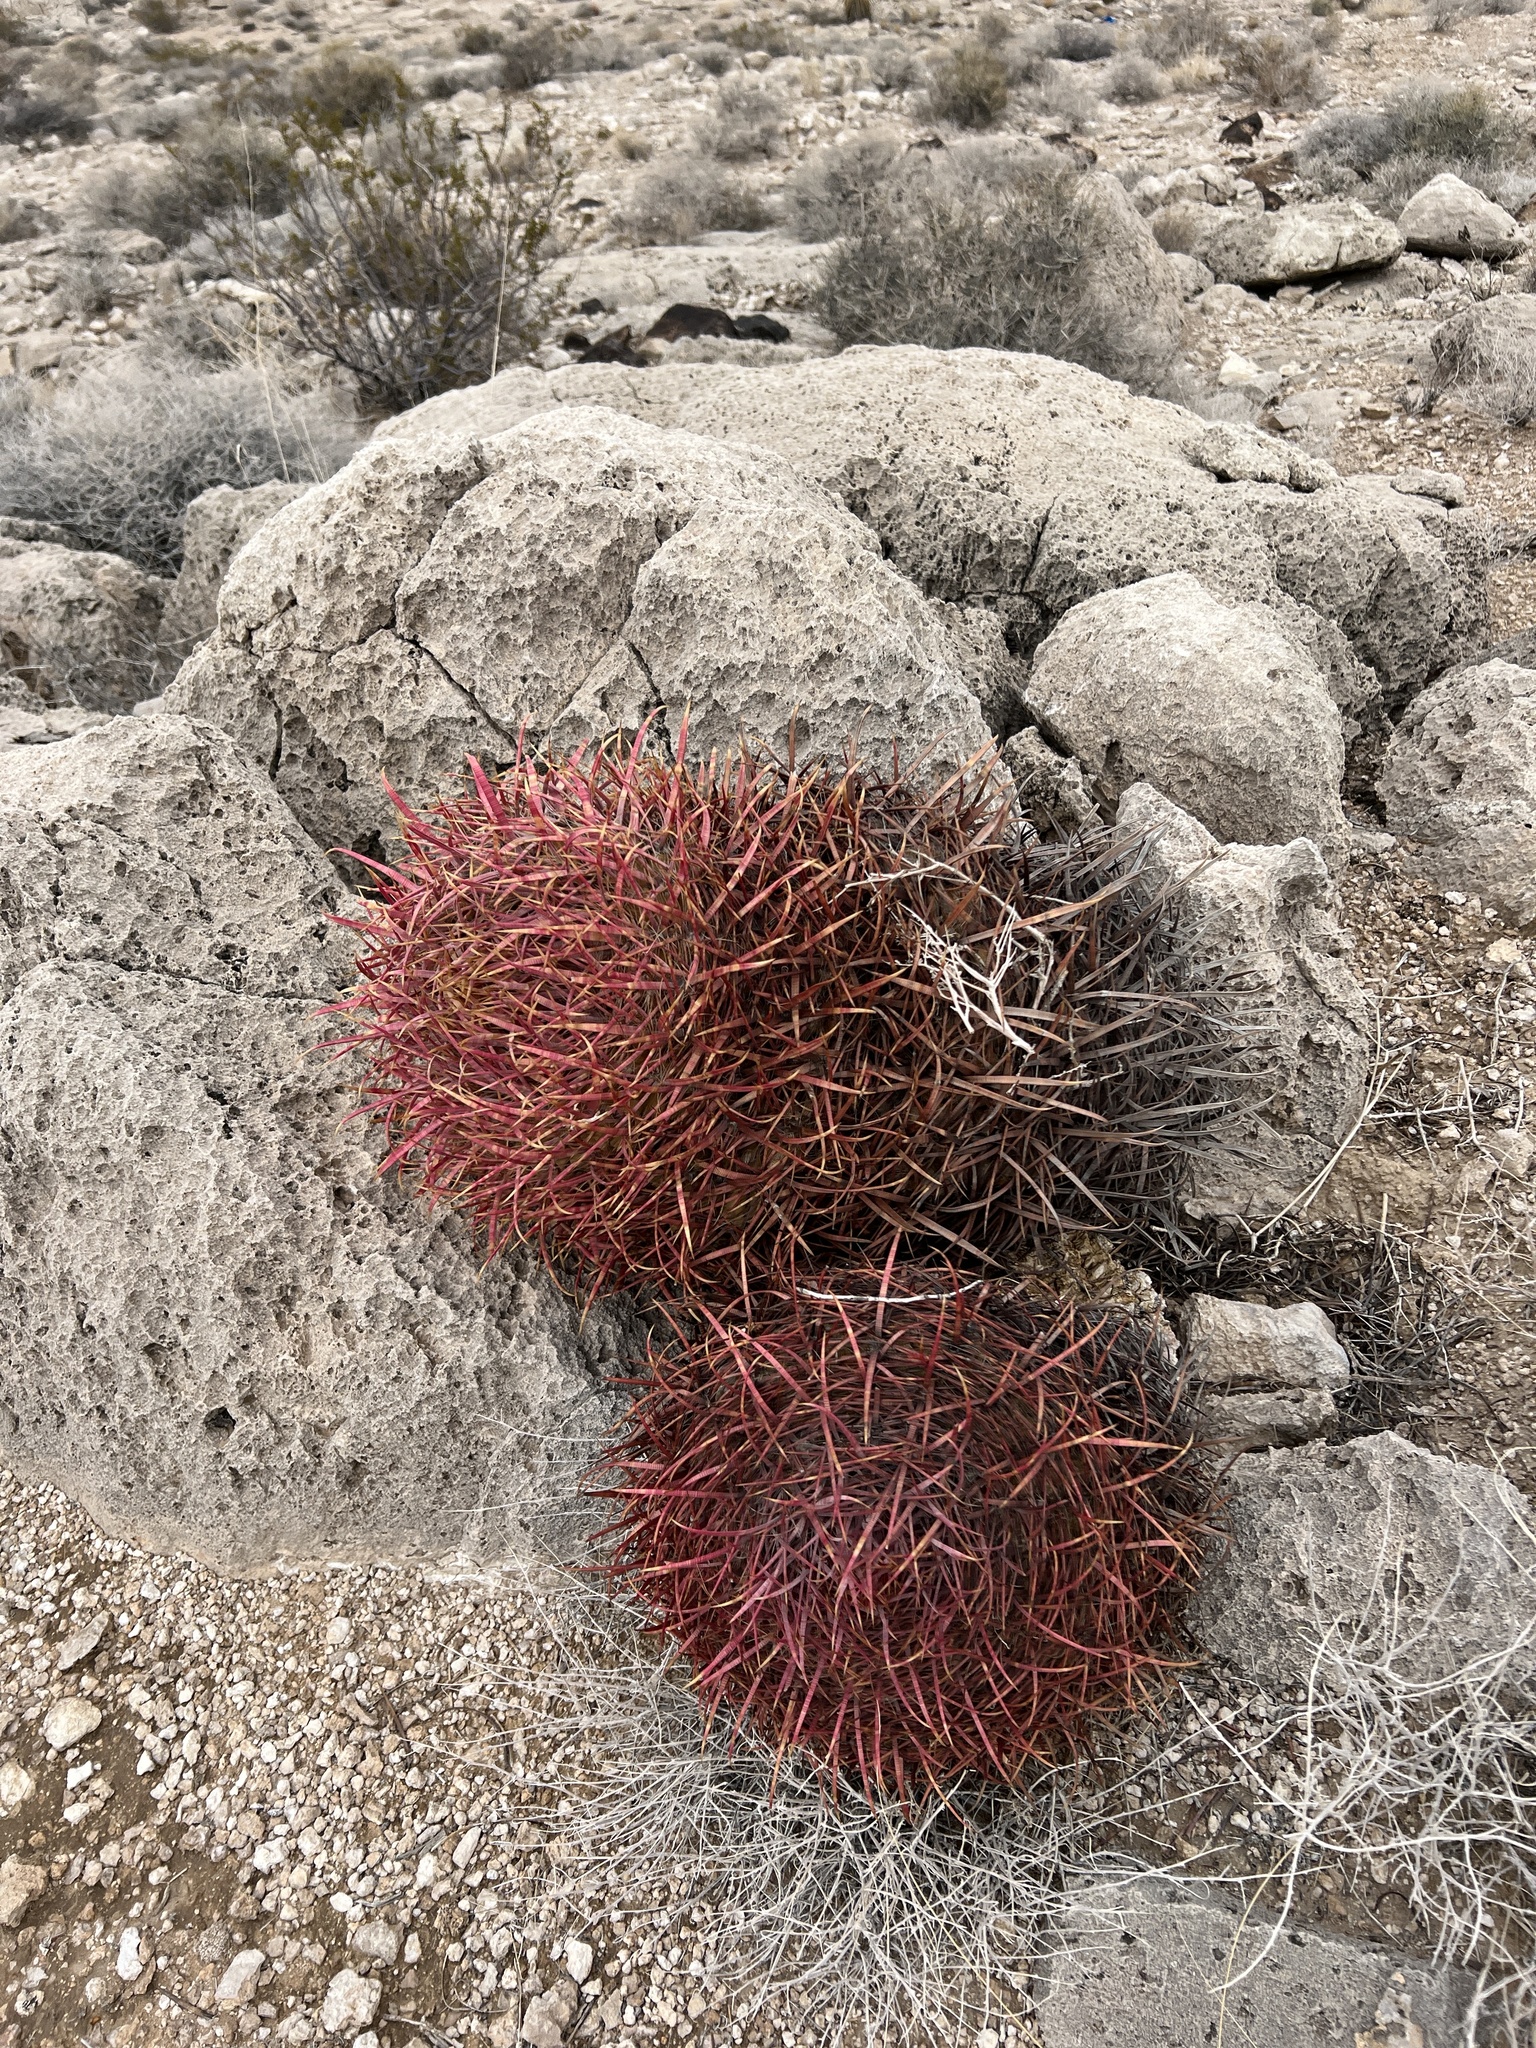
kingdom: Plantae
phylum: Tracheophyta
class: Magnoliopsida
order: Caryophyllales
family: Cactaceae
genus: Ferocactus
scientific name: Ferocactus cylindraceus
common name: California barrel cactus
